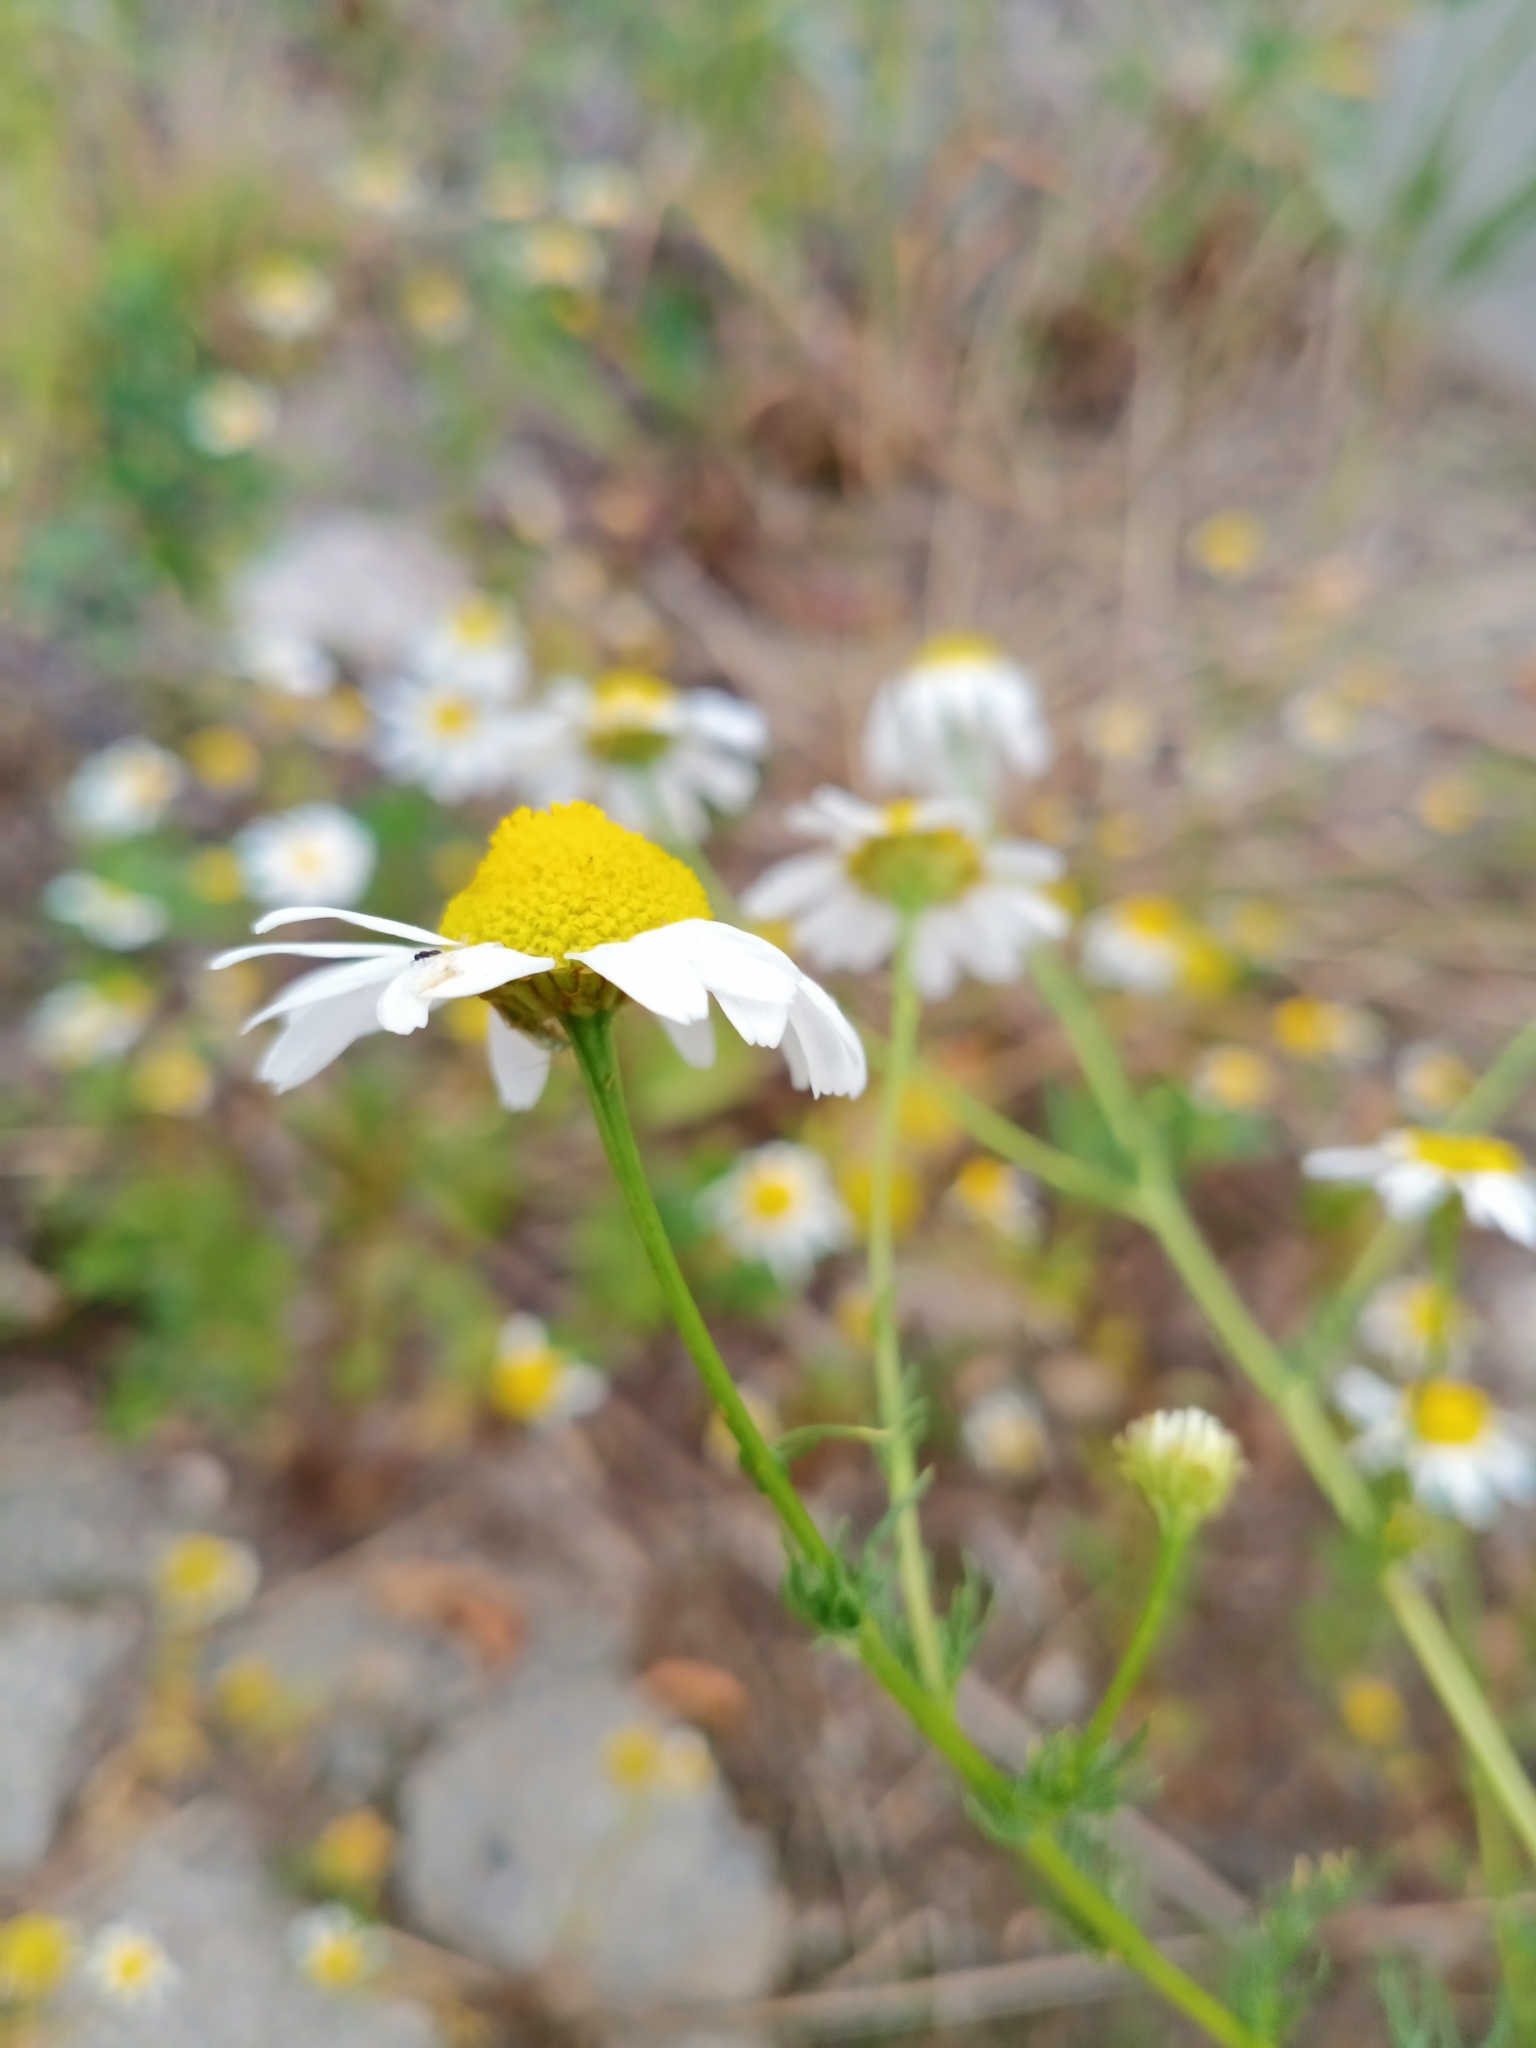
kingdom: Plantae
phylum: Tracheophyta
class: Magnoliopsida
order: Asterales
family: Asteraceae
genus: Tripleurospermum
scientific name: Tripleurospermum inodorum
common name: Scentless mayweed
